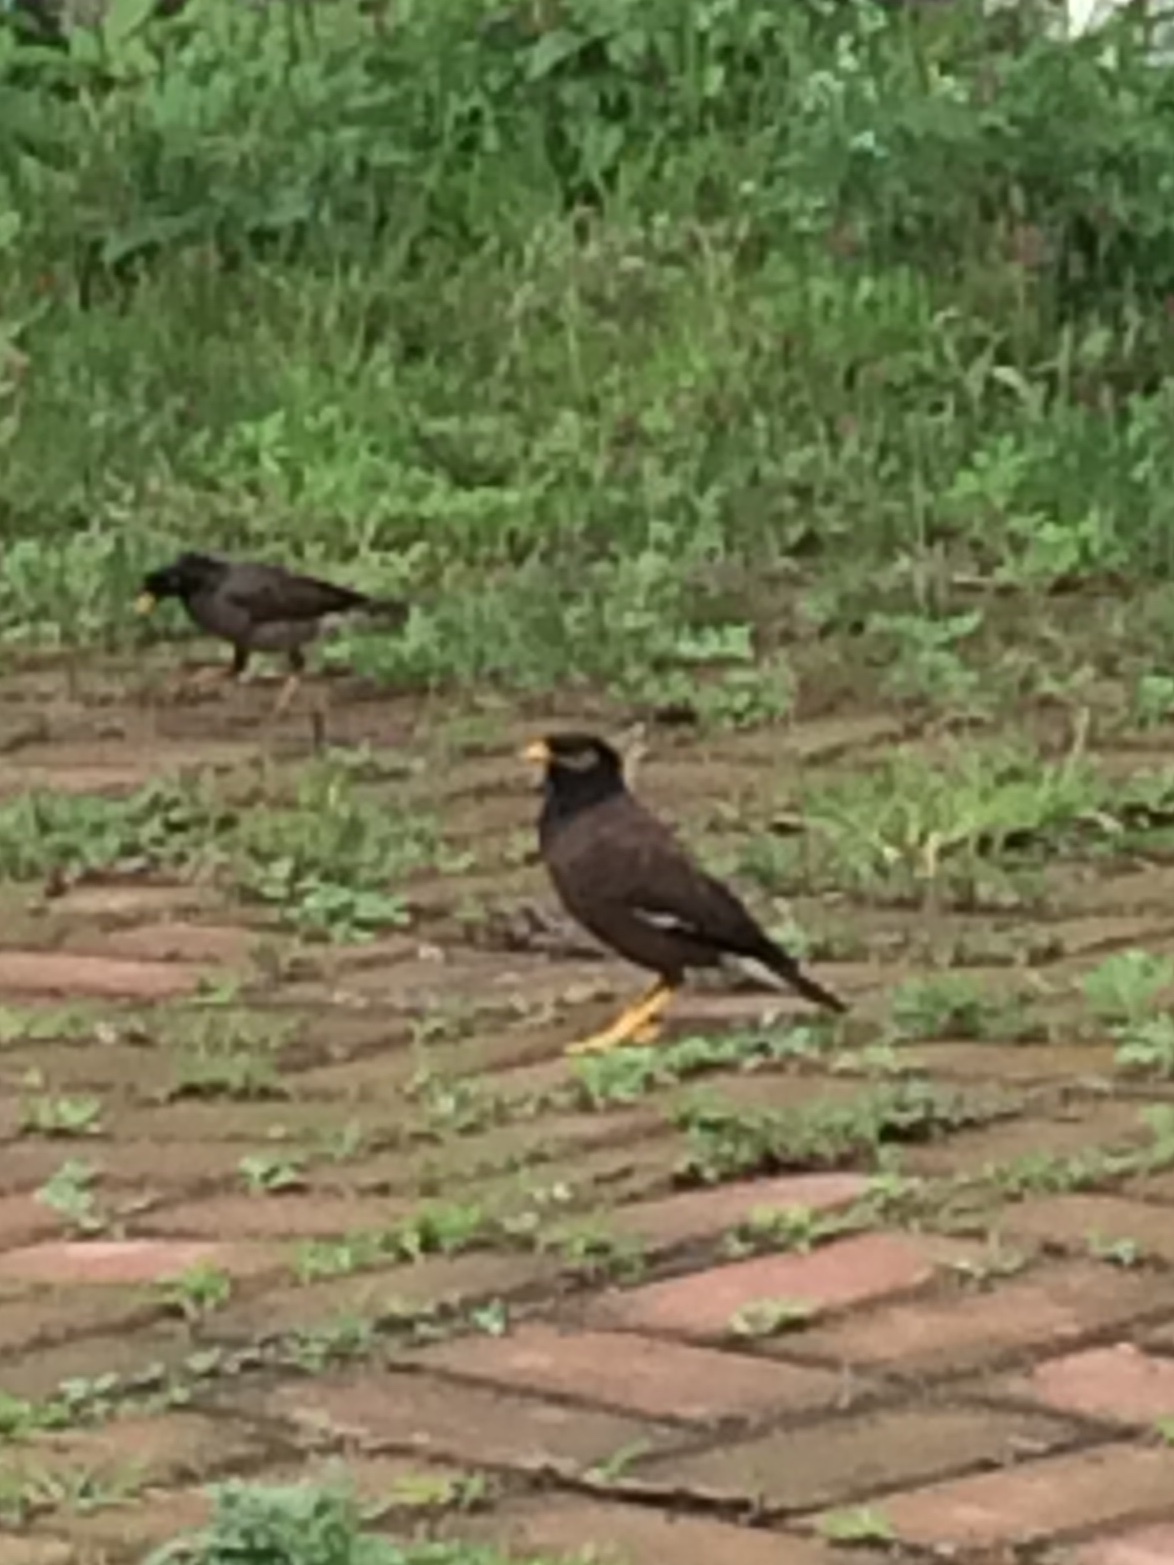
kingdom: Animalia
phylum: Chordata
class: Aves
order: Passeriformes
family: Sturnidae
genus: Acridotheres
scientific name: Acridotheres tristis
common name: Common myna
